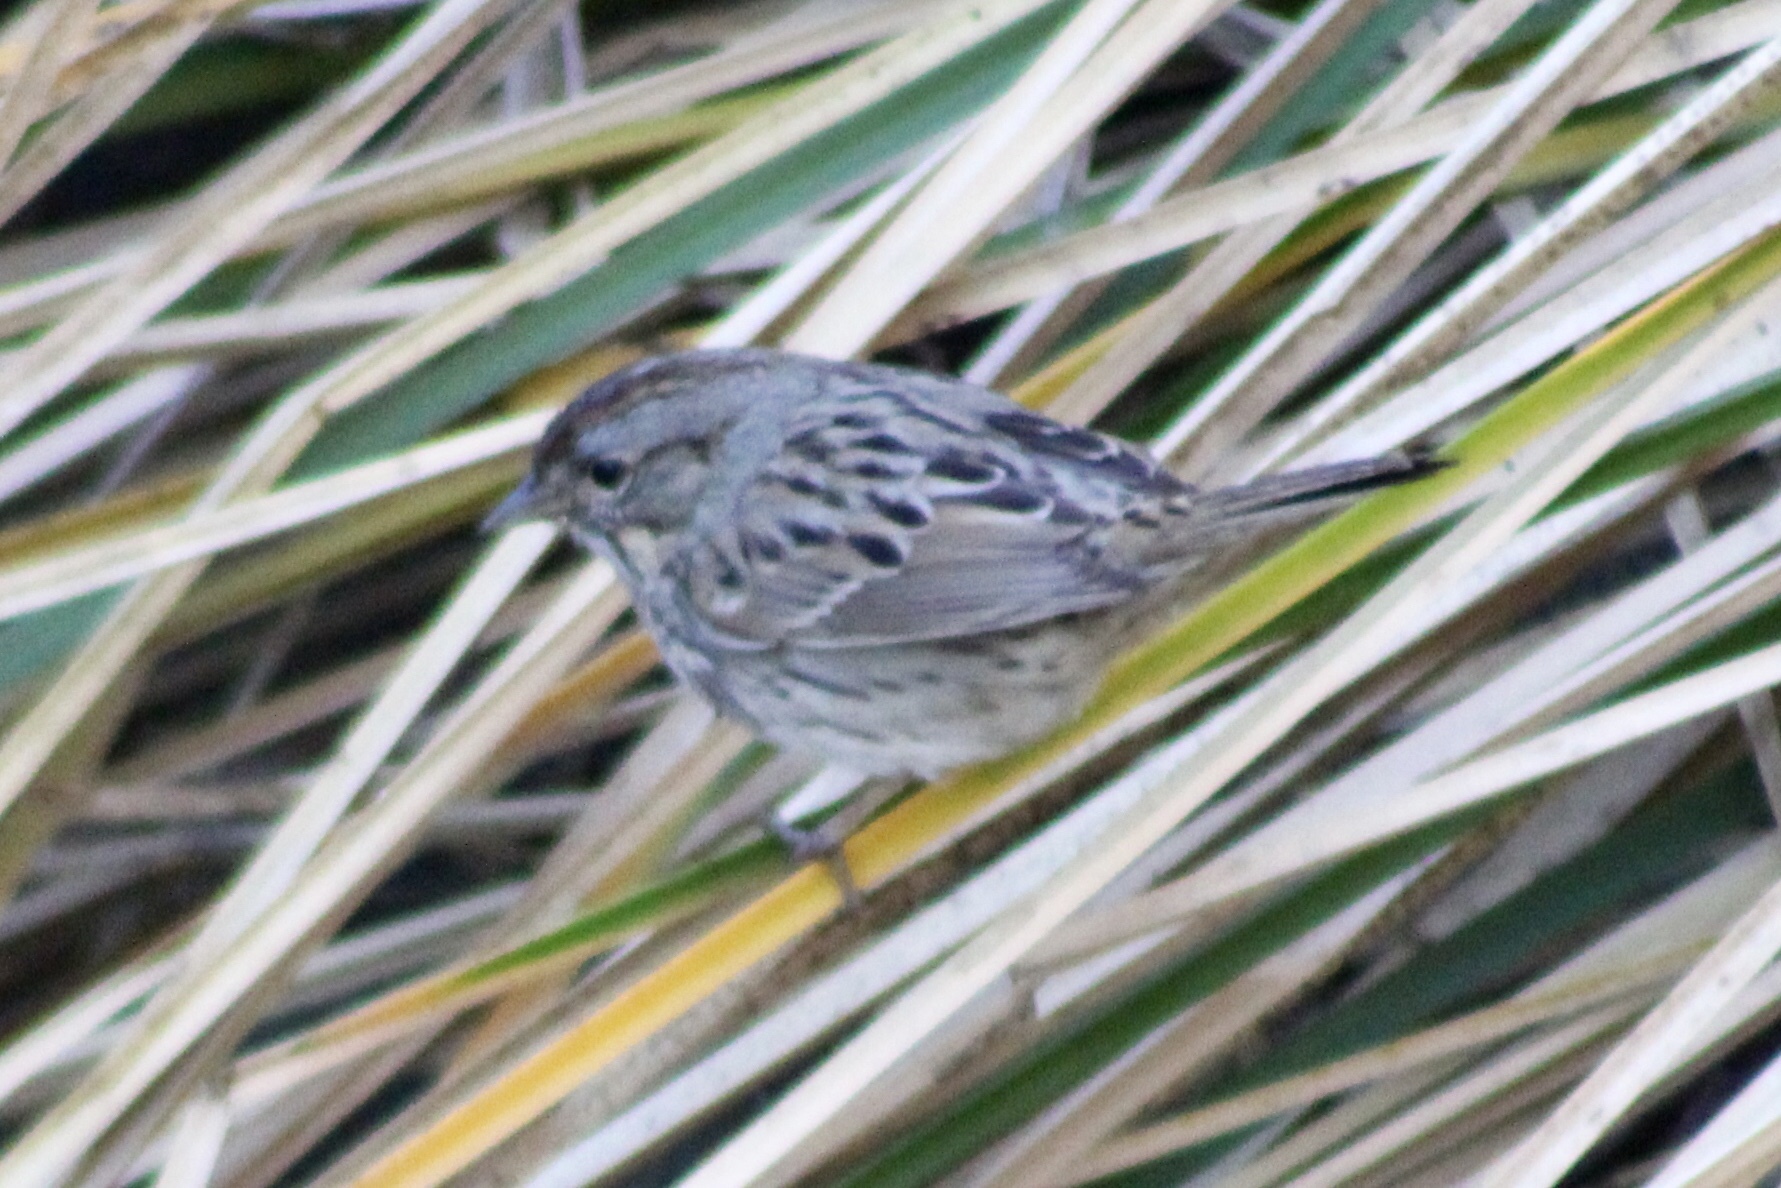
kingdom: Animalia
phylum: Chordata
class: Aves
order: Passeriformes
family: Passerellidae
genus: Melospiza
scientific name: Melospiza lincolnii
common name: Lincoln's sparrow
